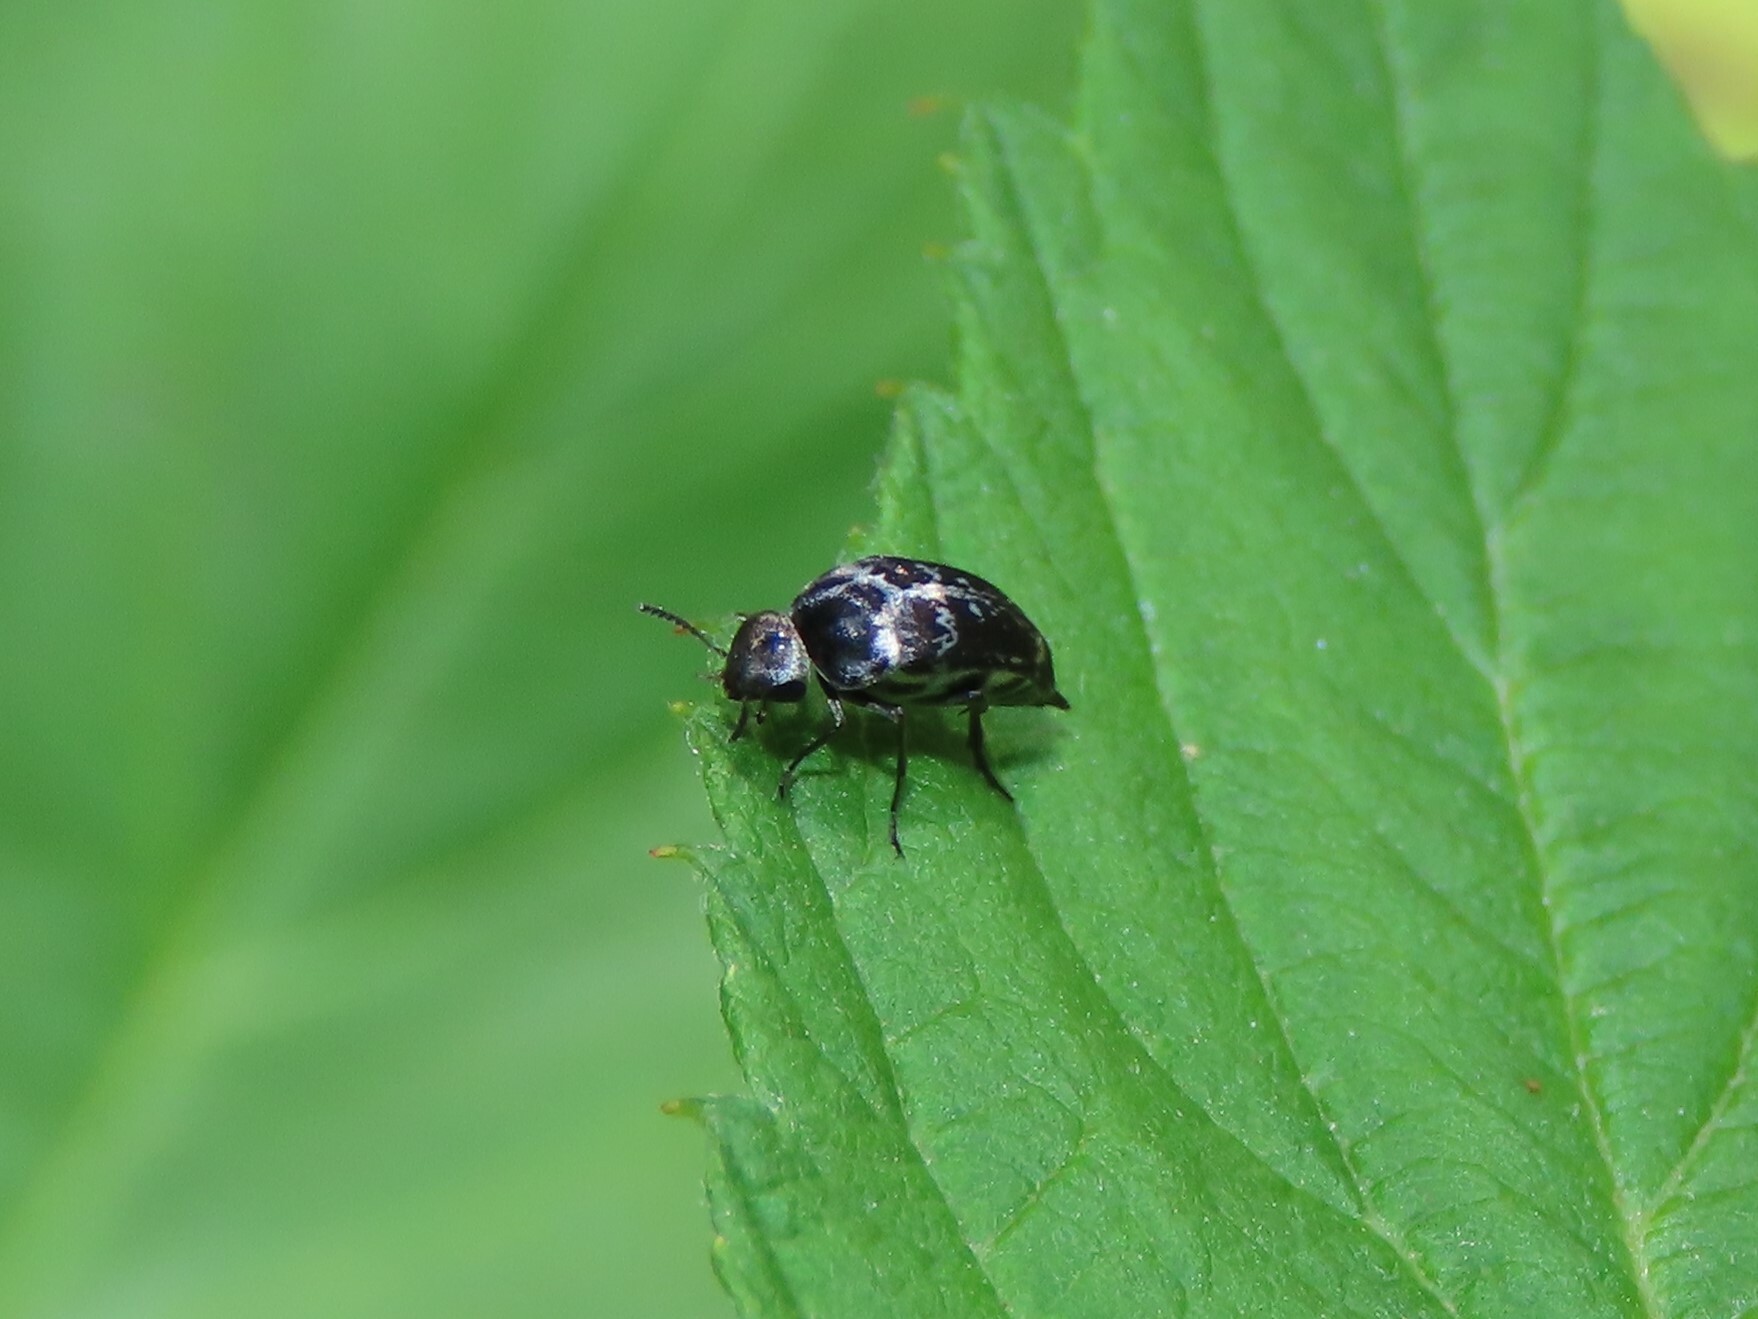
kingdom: Animalia
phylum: Arthropoda
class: Insecta
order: Coleoptera
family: Mordellidae
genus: Mordella
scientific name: Mordella marginata
